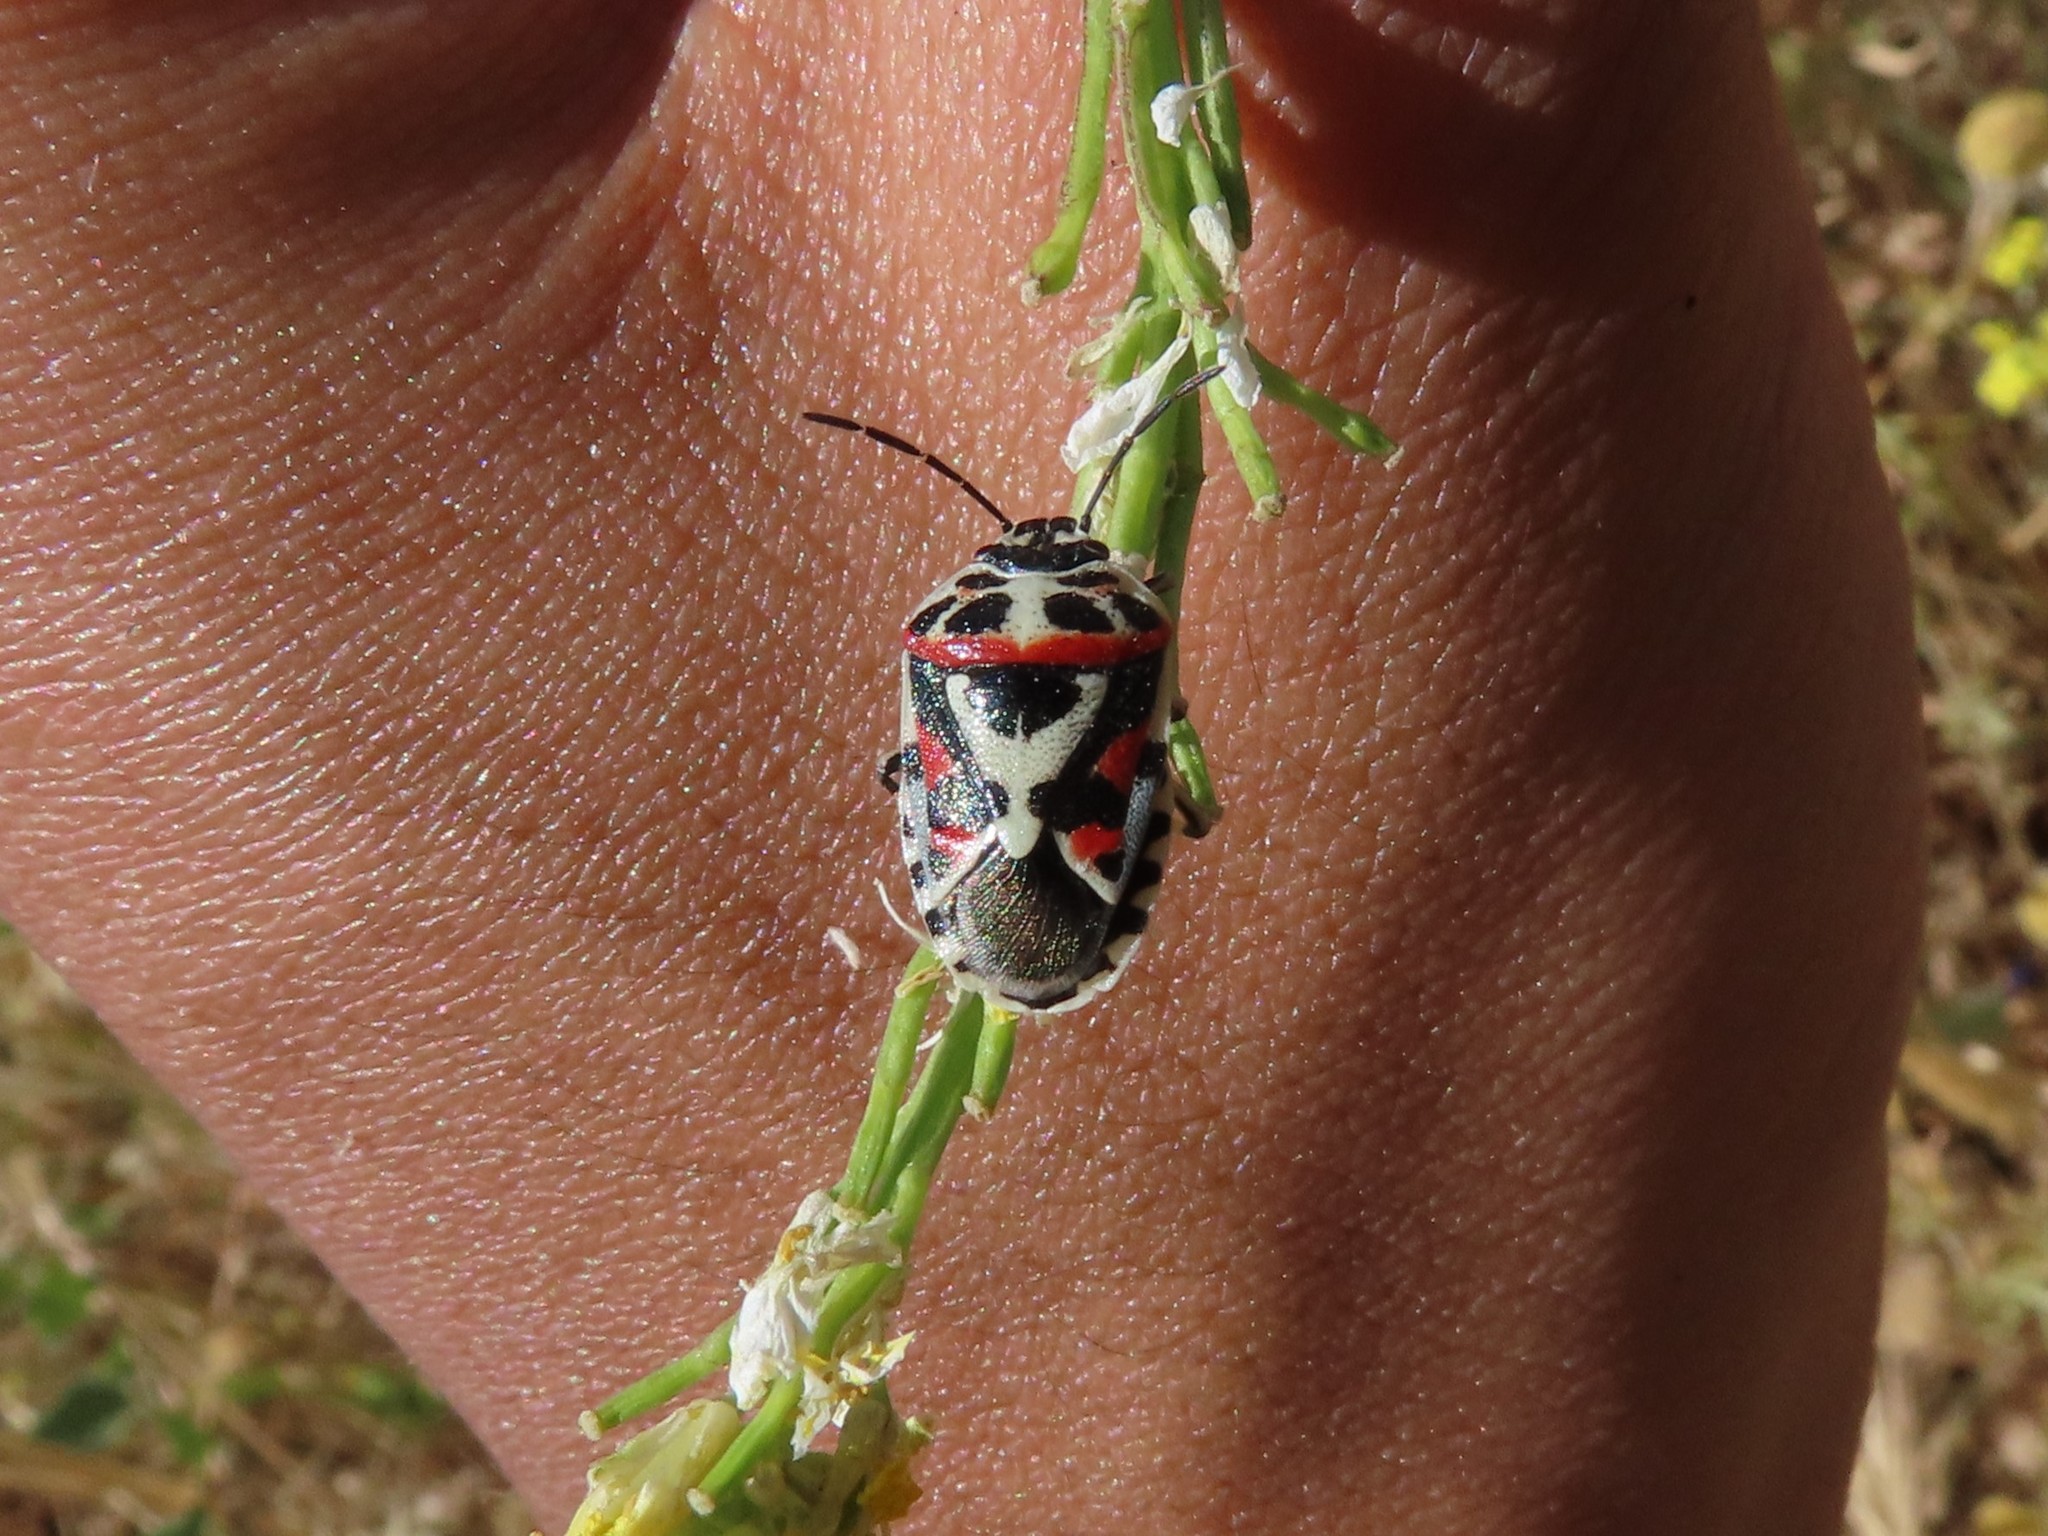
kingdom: Animalia
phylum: Arthropoda
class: Insecta
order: Hemiptera
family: Pentatomidae
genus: Eurydema
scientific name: Eurydema ornata
